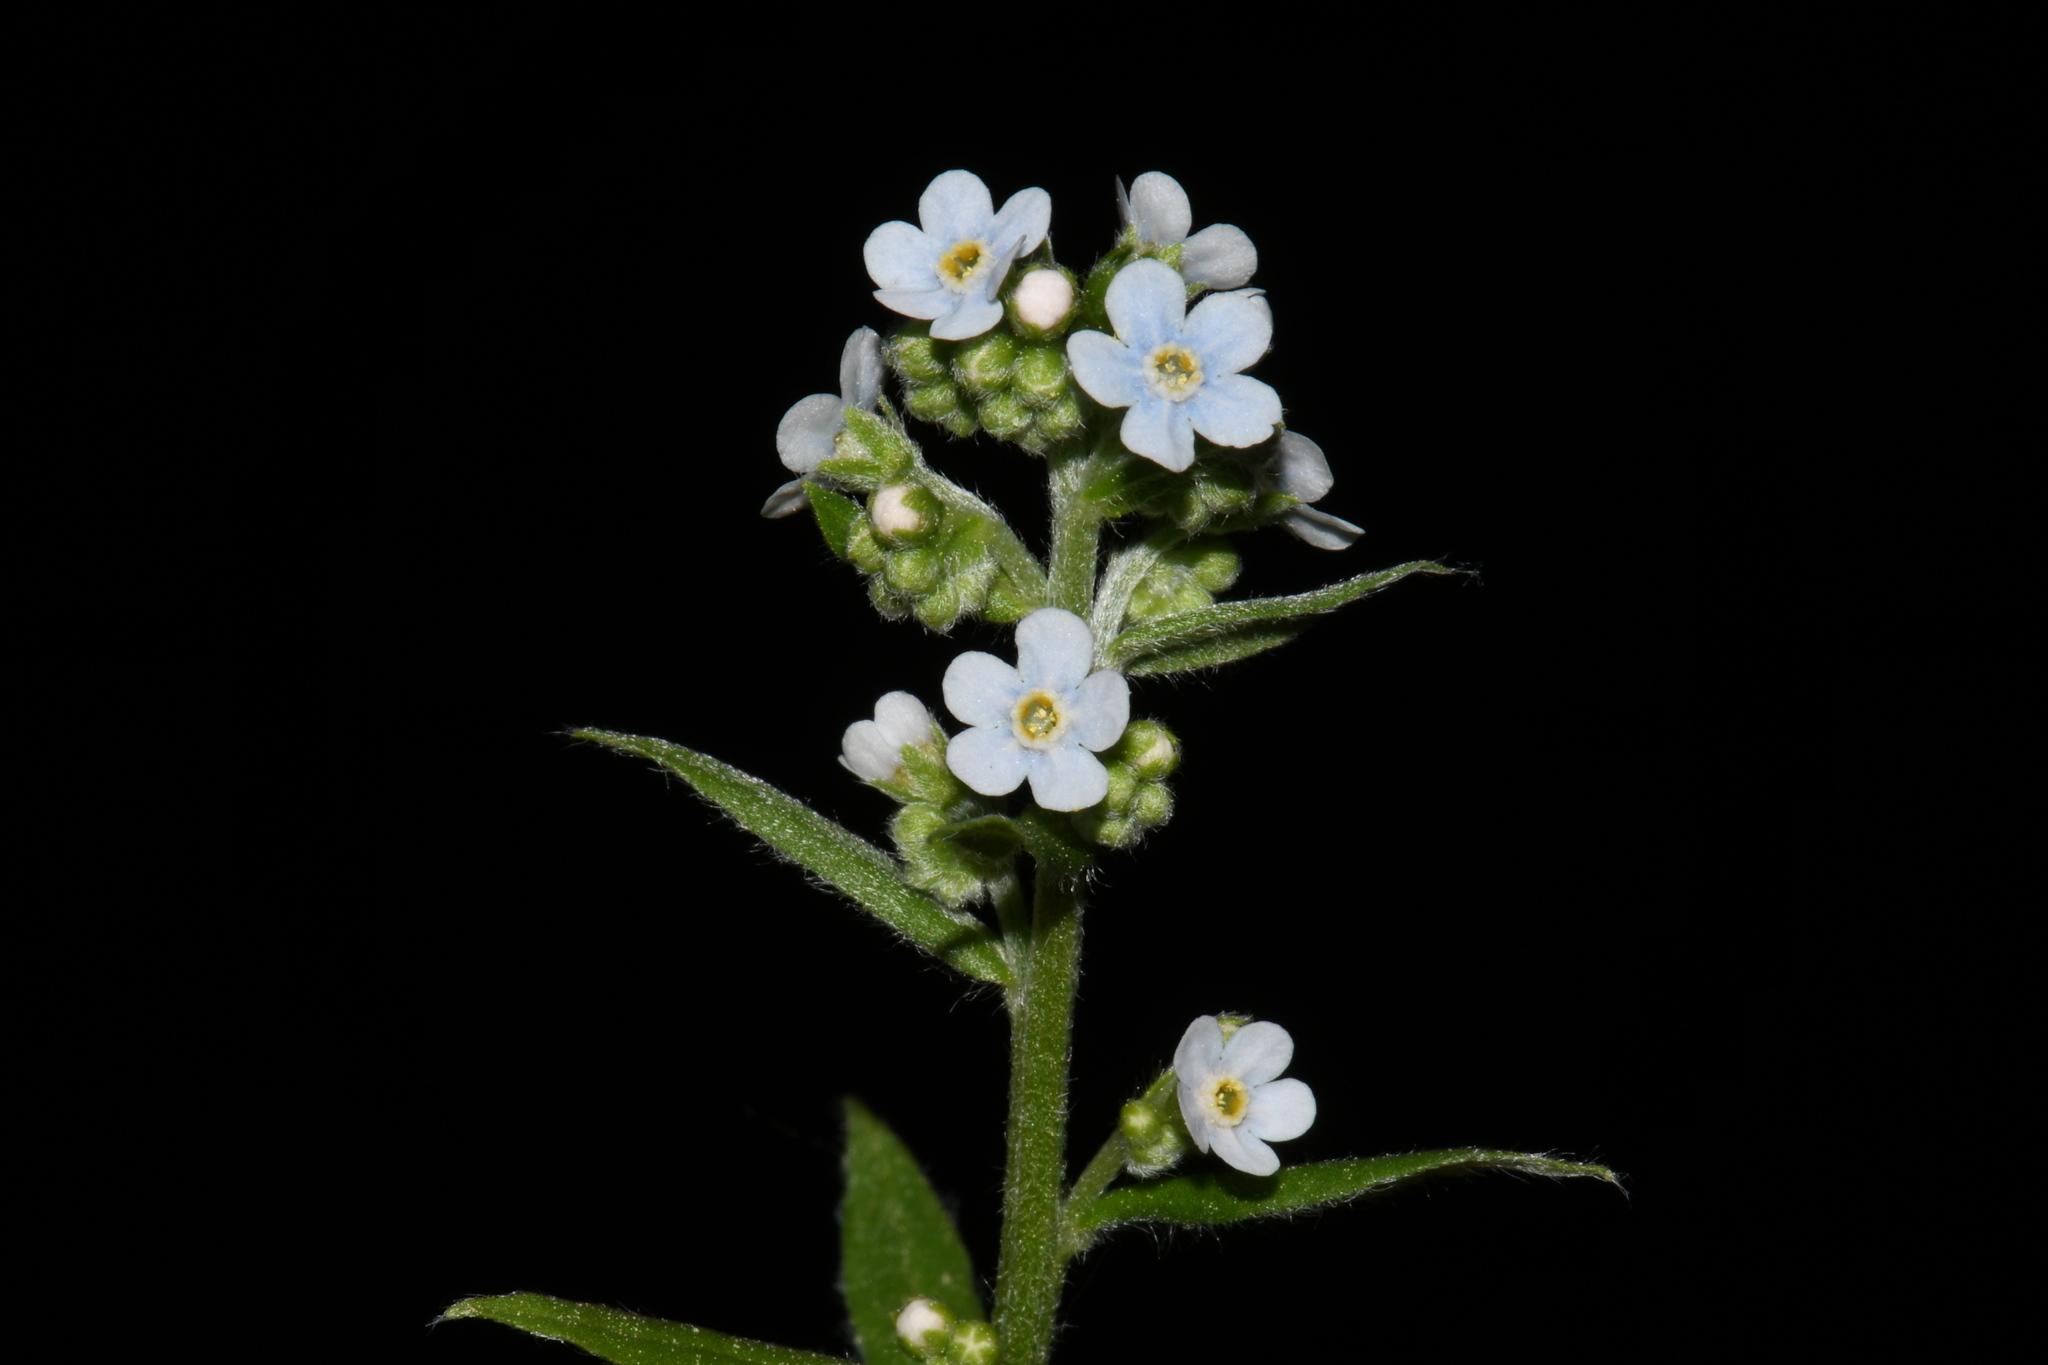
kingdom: Plantae
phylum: Tracheophyta
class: Magnoliopsida
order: Boraginales
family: Boraginaceae
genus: Hackelia
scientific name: Hackelia floribunda
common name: Large-flowered stickseed
